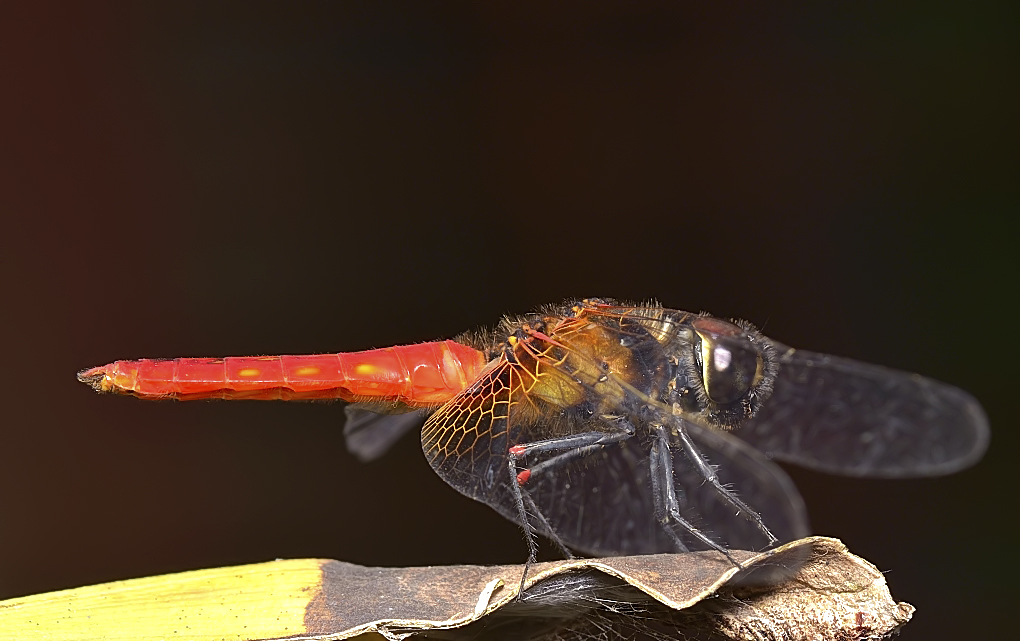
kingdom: Animalia
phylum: Arthropoda
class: Insecta
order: Odonata
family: Libellulidae
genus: Aethriamanta
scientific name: Aethriamanta brevipennis
